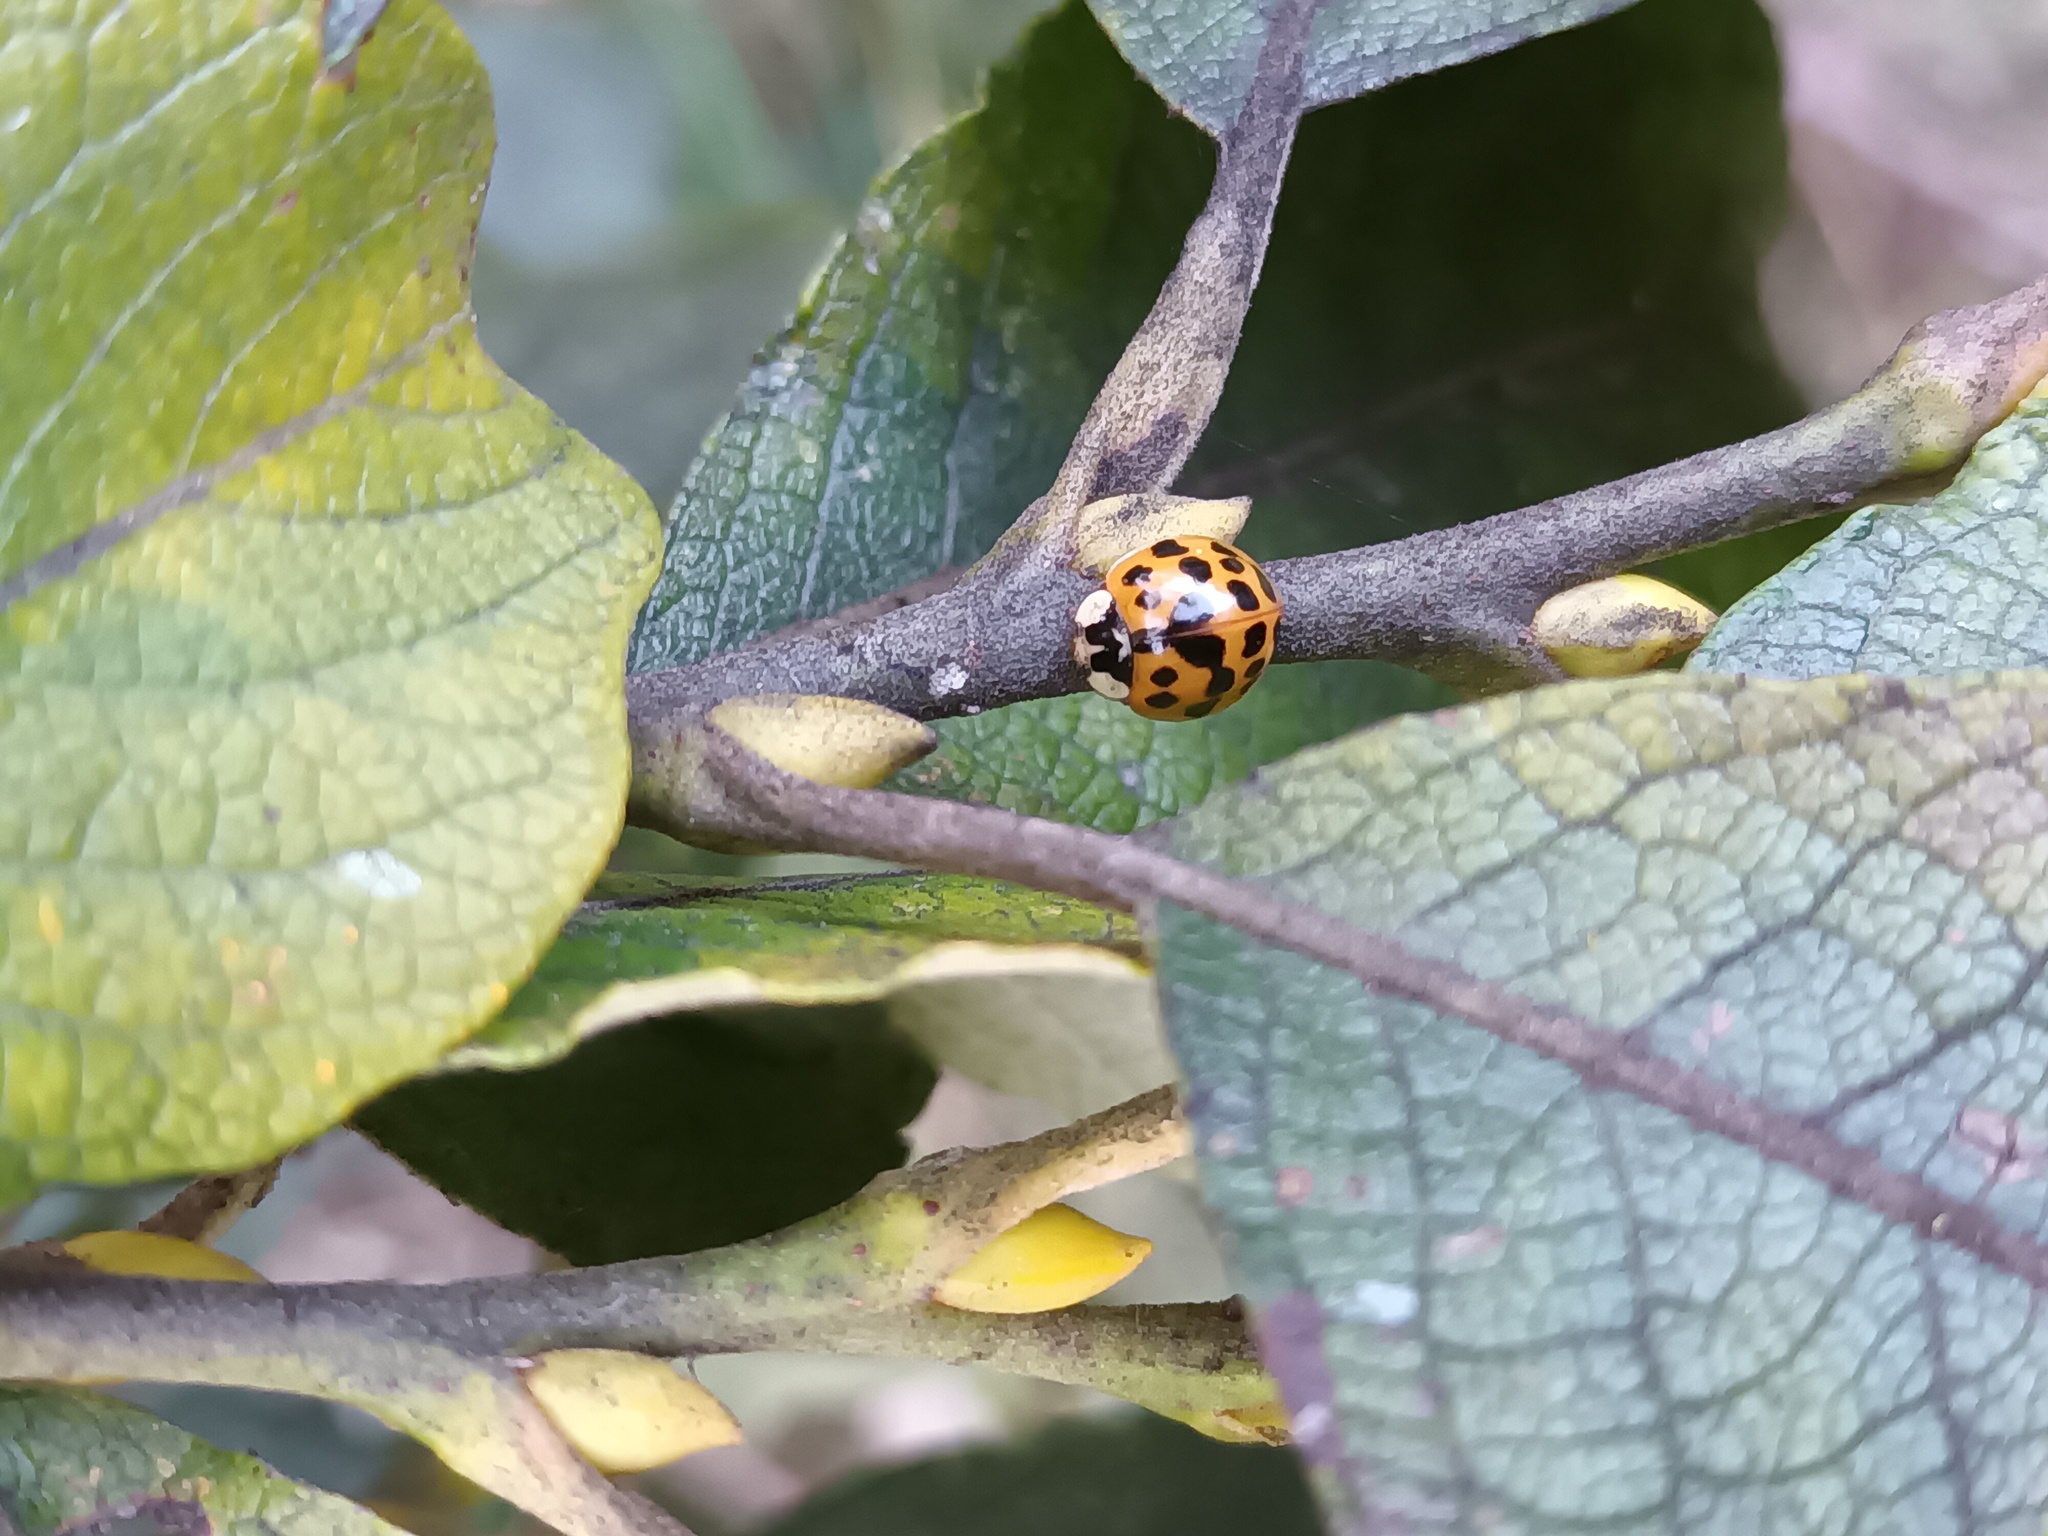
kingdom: Animalia
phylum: Arthropoda
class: Insecta
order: Coleoptera
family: Coccinellidae
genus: Harmonia
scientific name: Harmonia axyridis
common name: Harlequin ladybird
